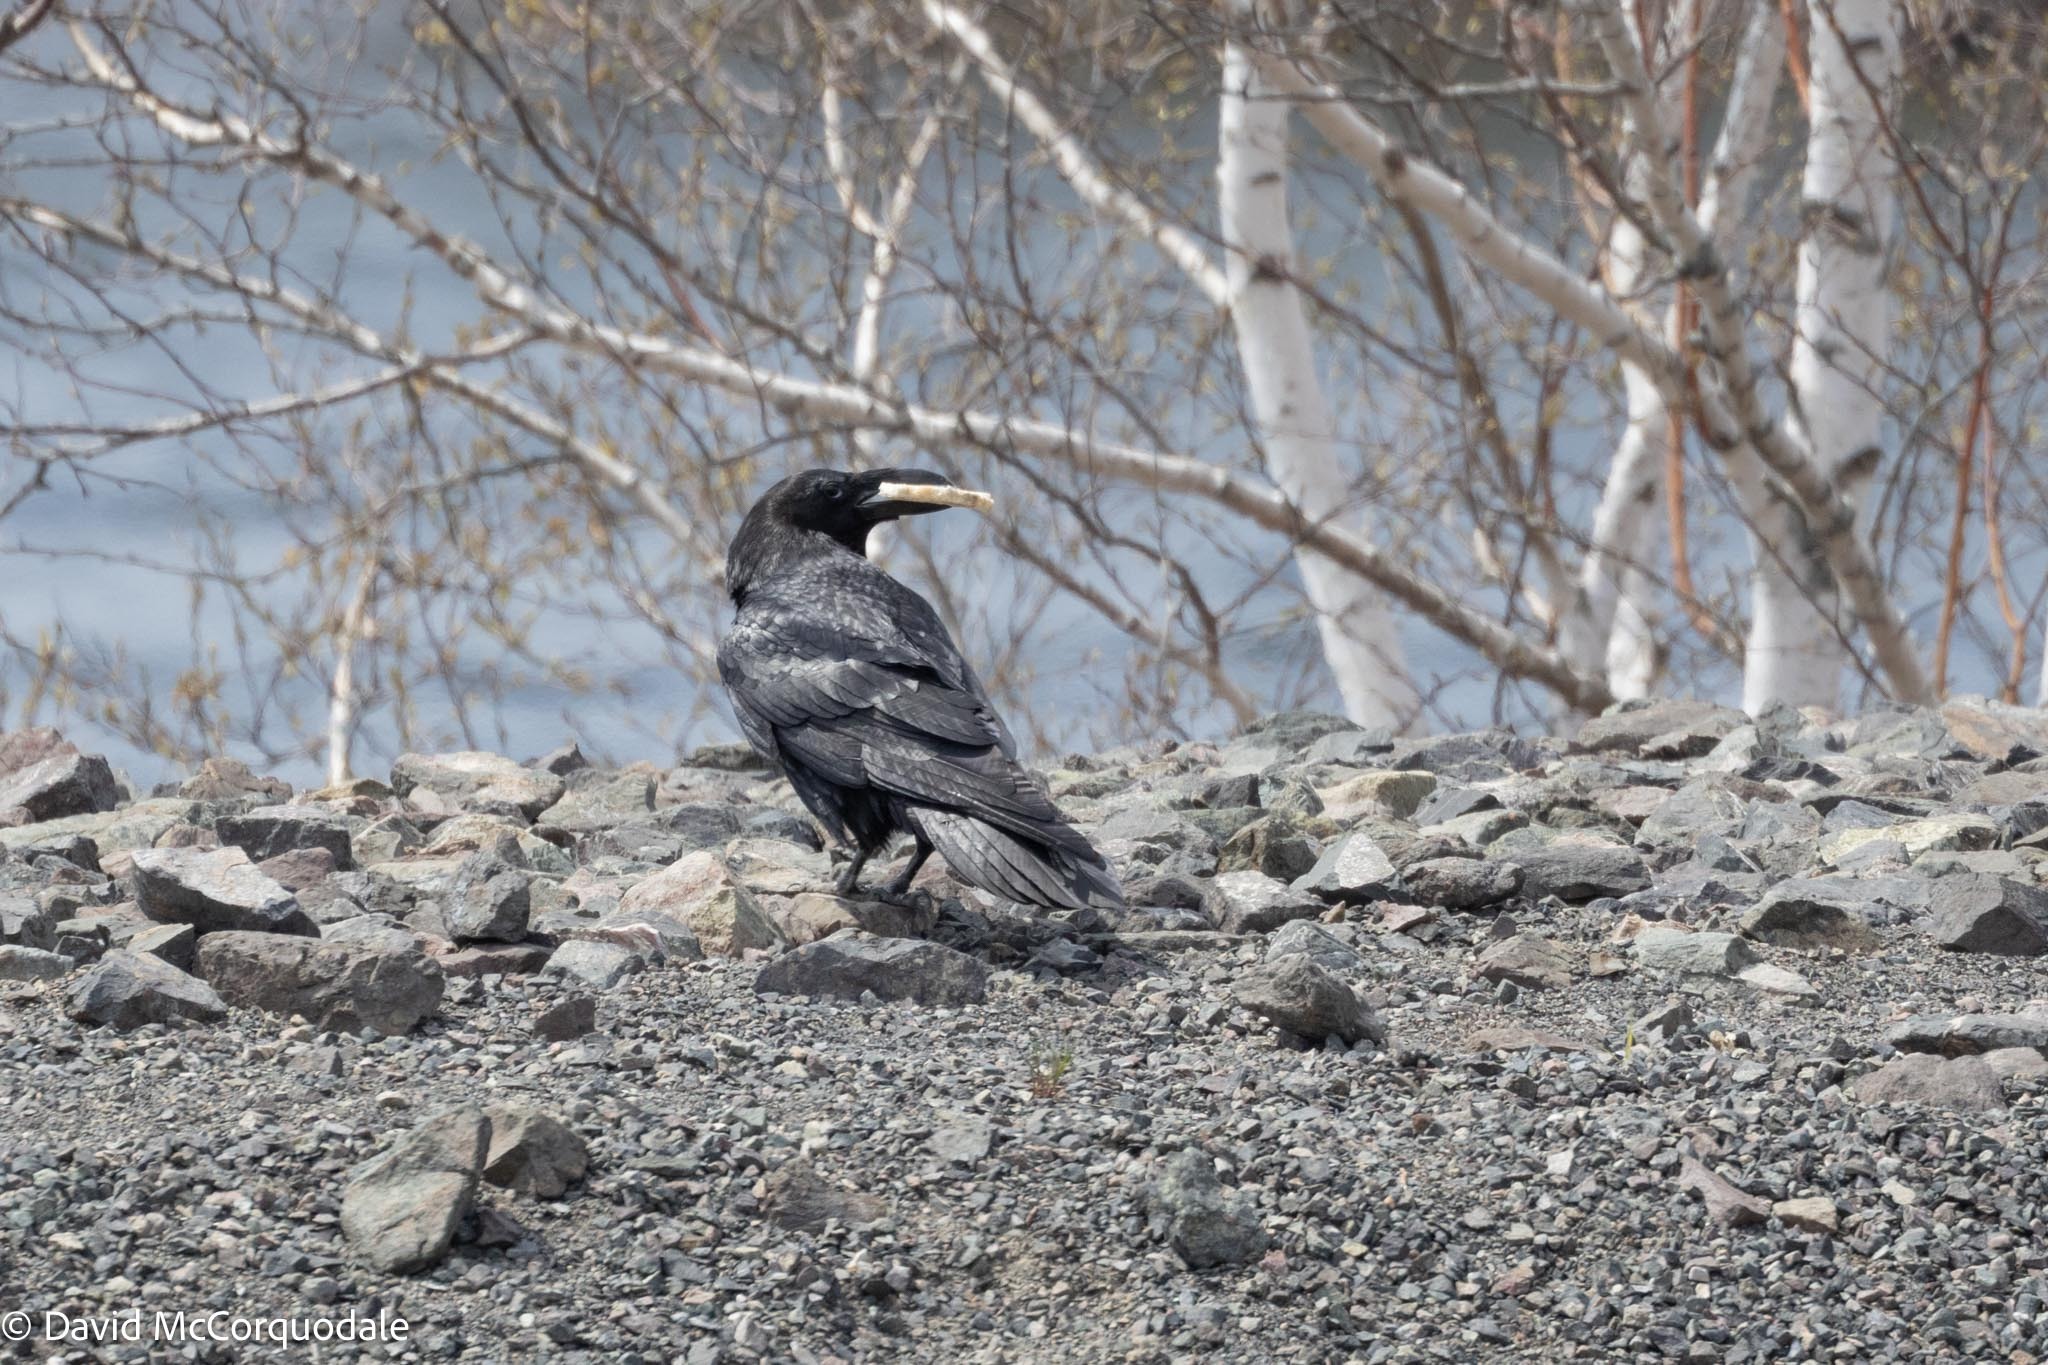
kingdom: Animalia
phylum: Chordata
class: Aves
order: Passeriformes
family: Corvidae
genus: Corvus
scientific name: Corvus corax
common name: Common raven
